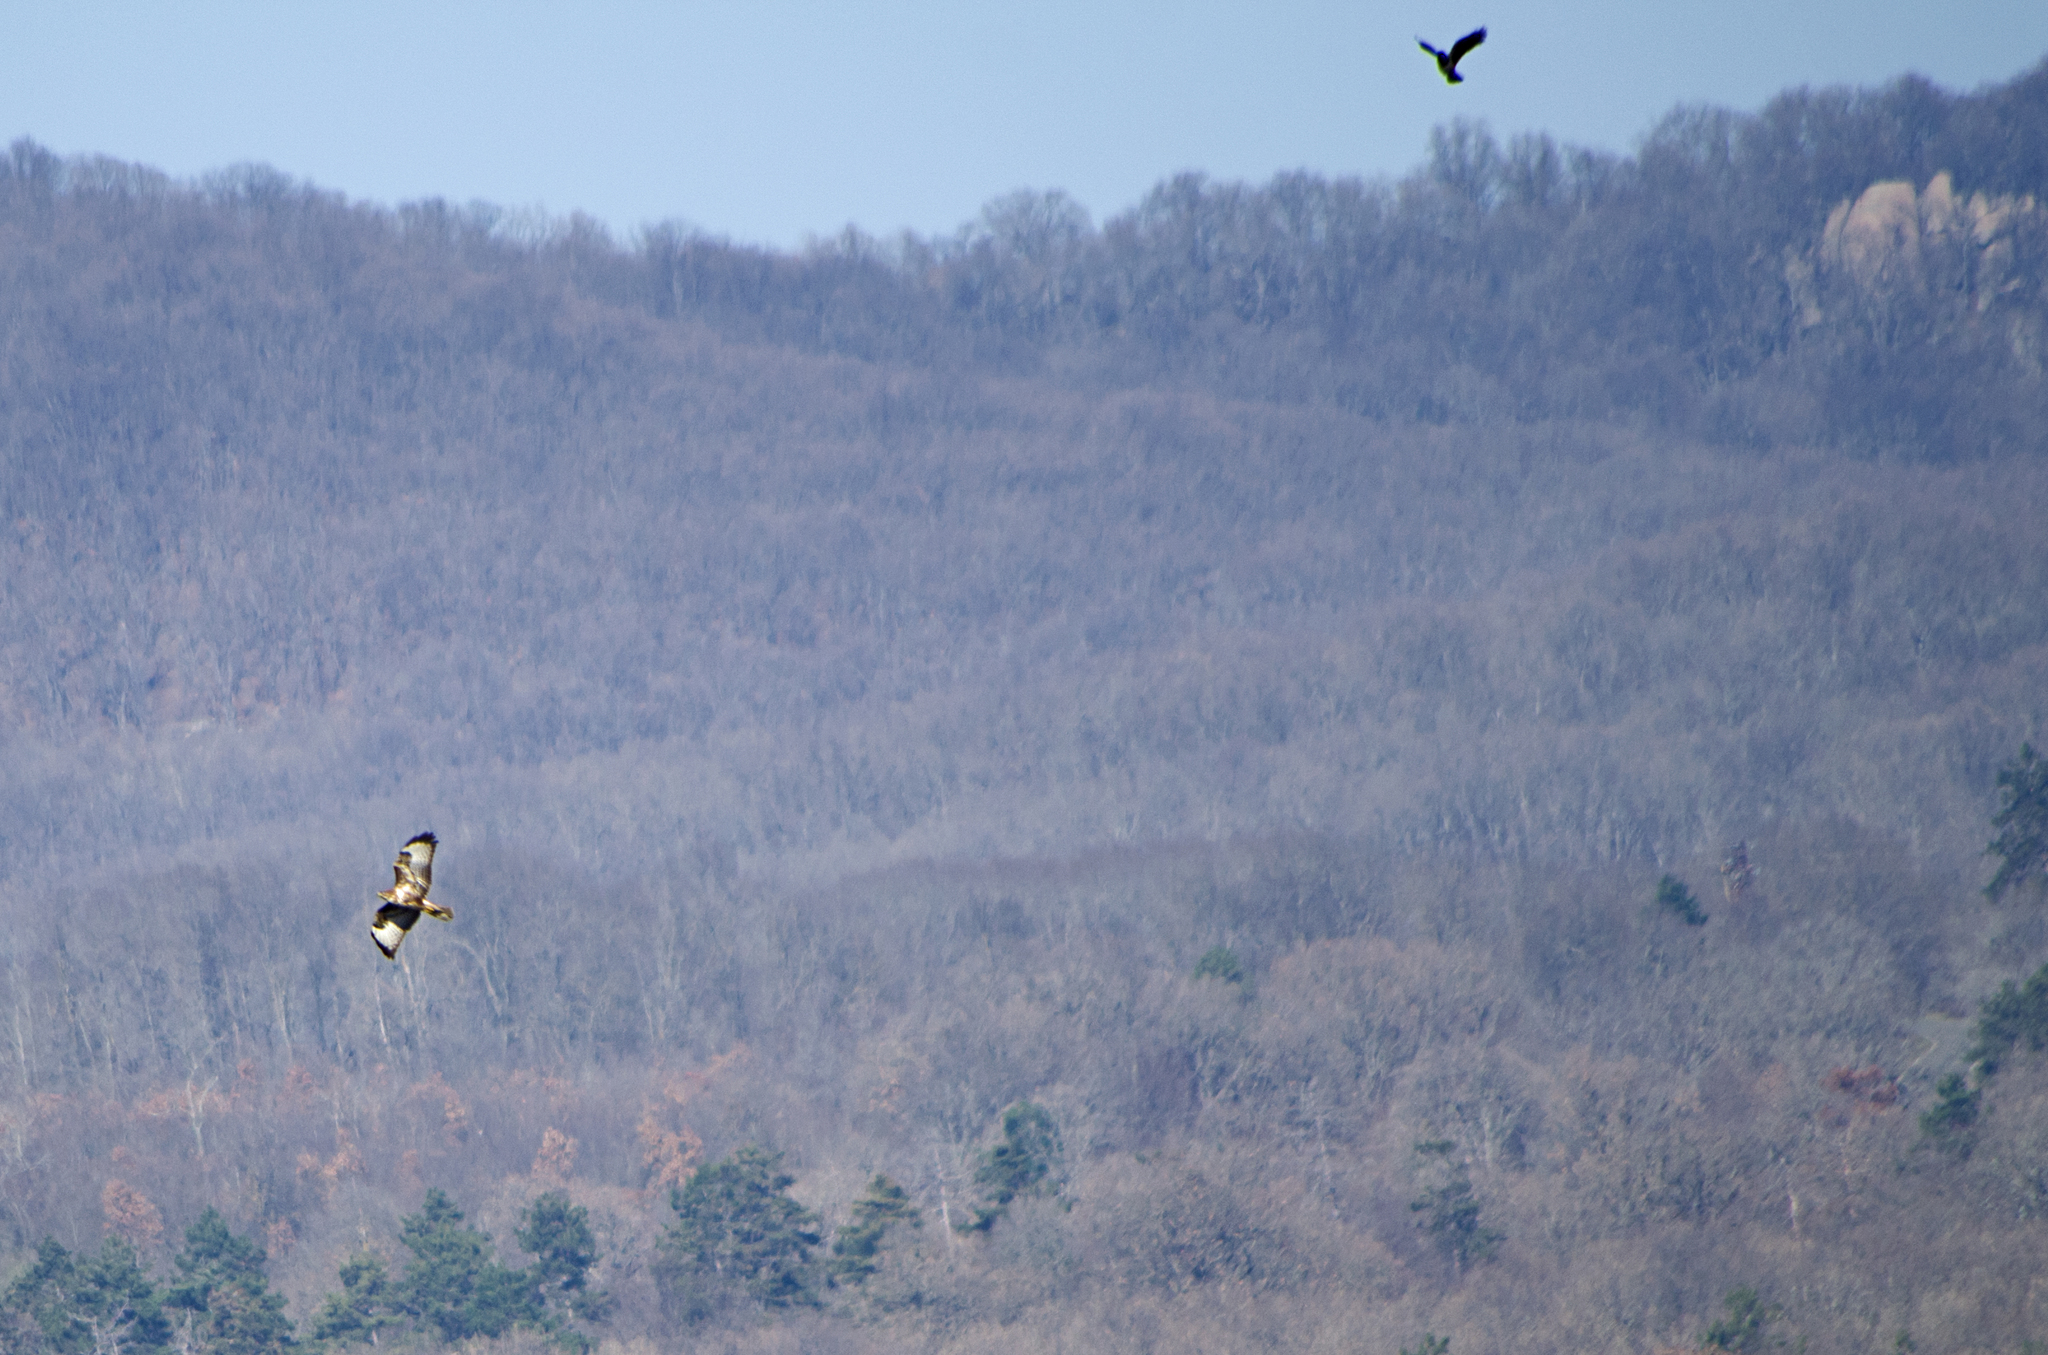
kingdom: Animalia
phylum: Chordata
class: Aves
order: Accipitriformes
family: Accipitridae
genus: Buteo
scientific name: Buteo buteo
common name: Common buzzard
